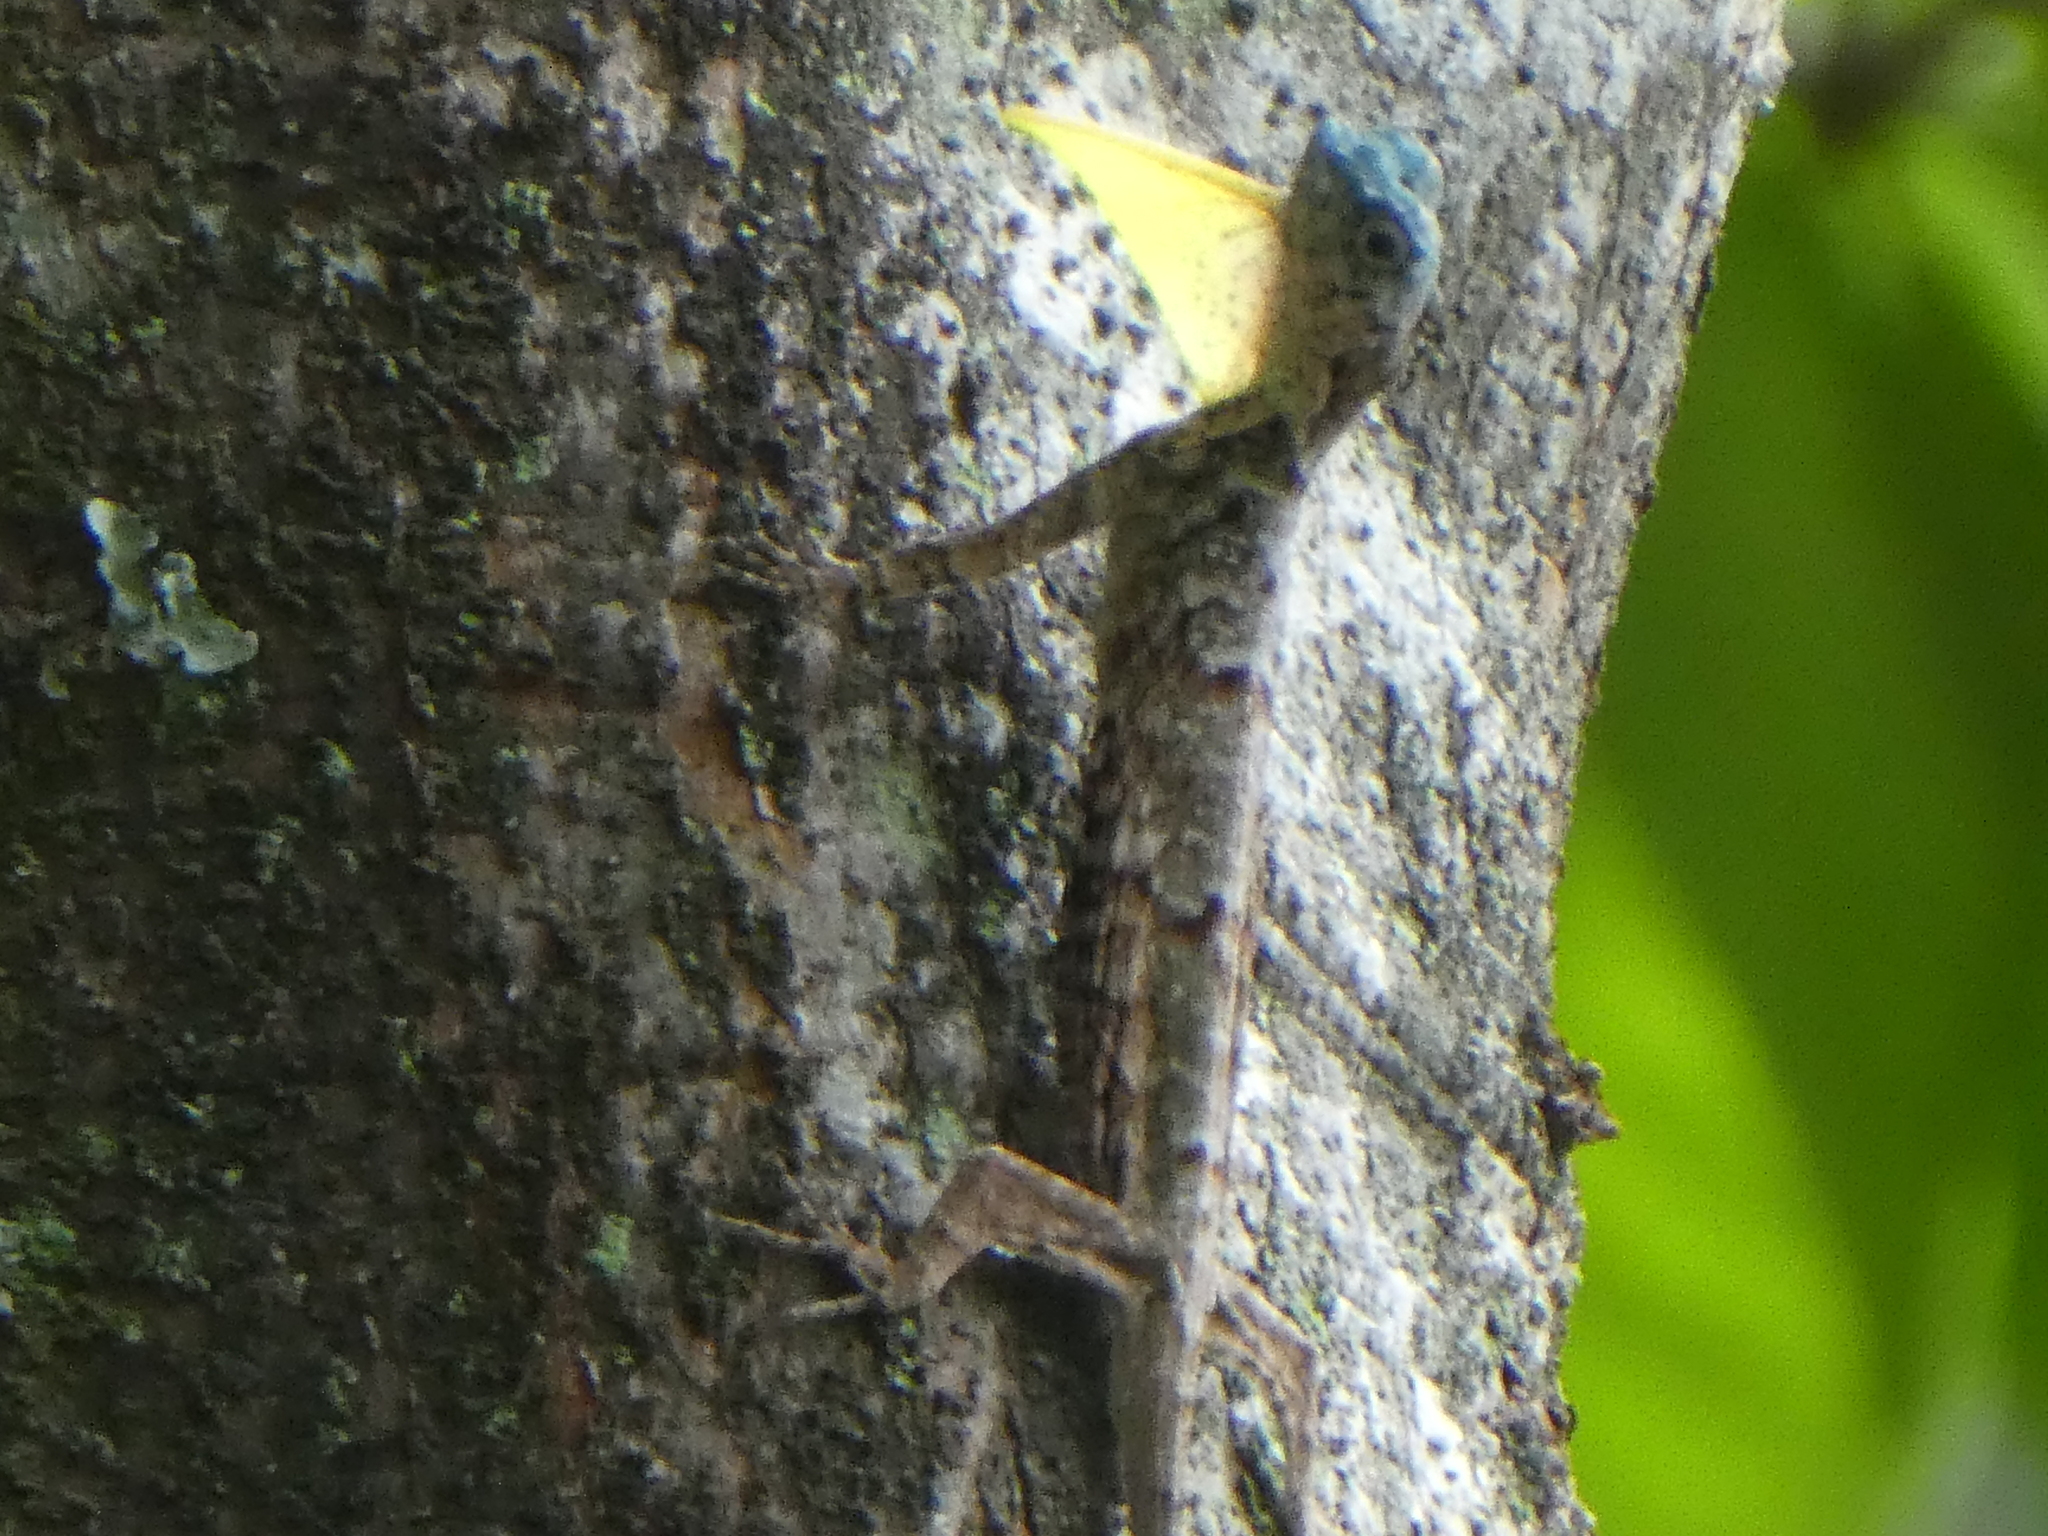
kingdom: Animalia
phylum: Chordata
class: Squamata
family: Agamidae
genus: Draco
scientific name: Draco sumatranus
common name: Common gliding lizard
